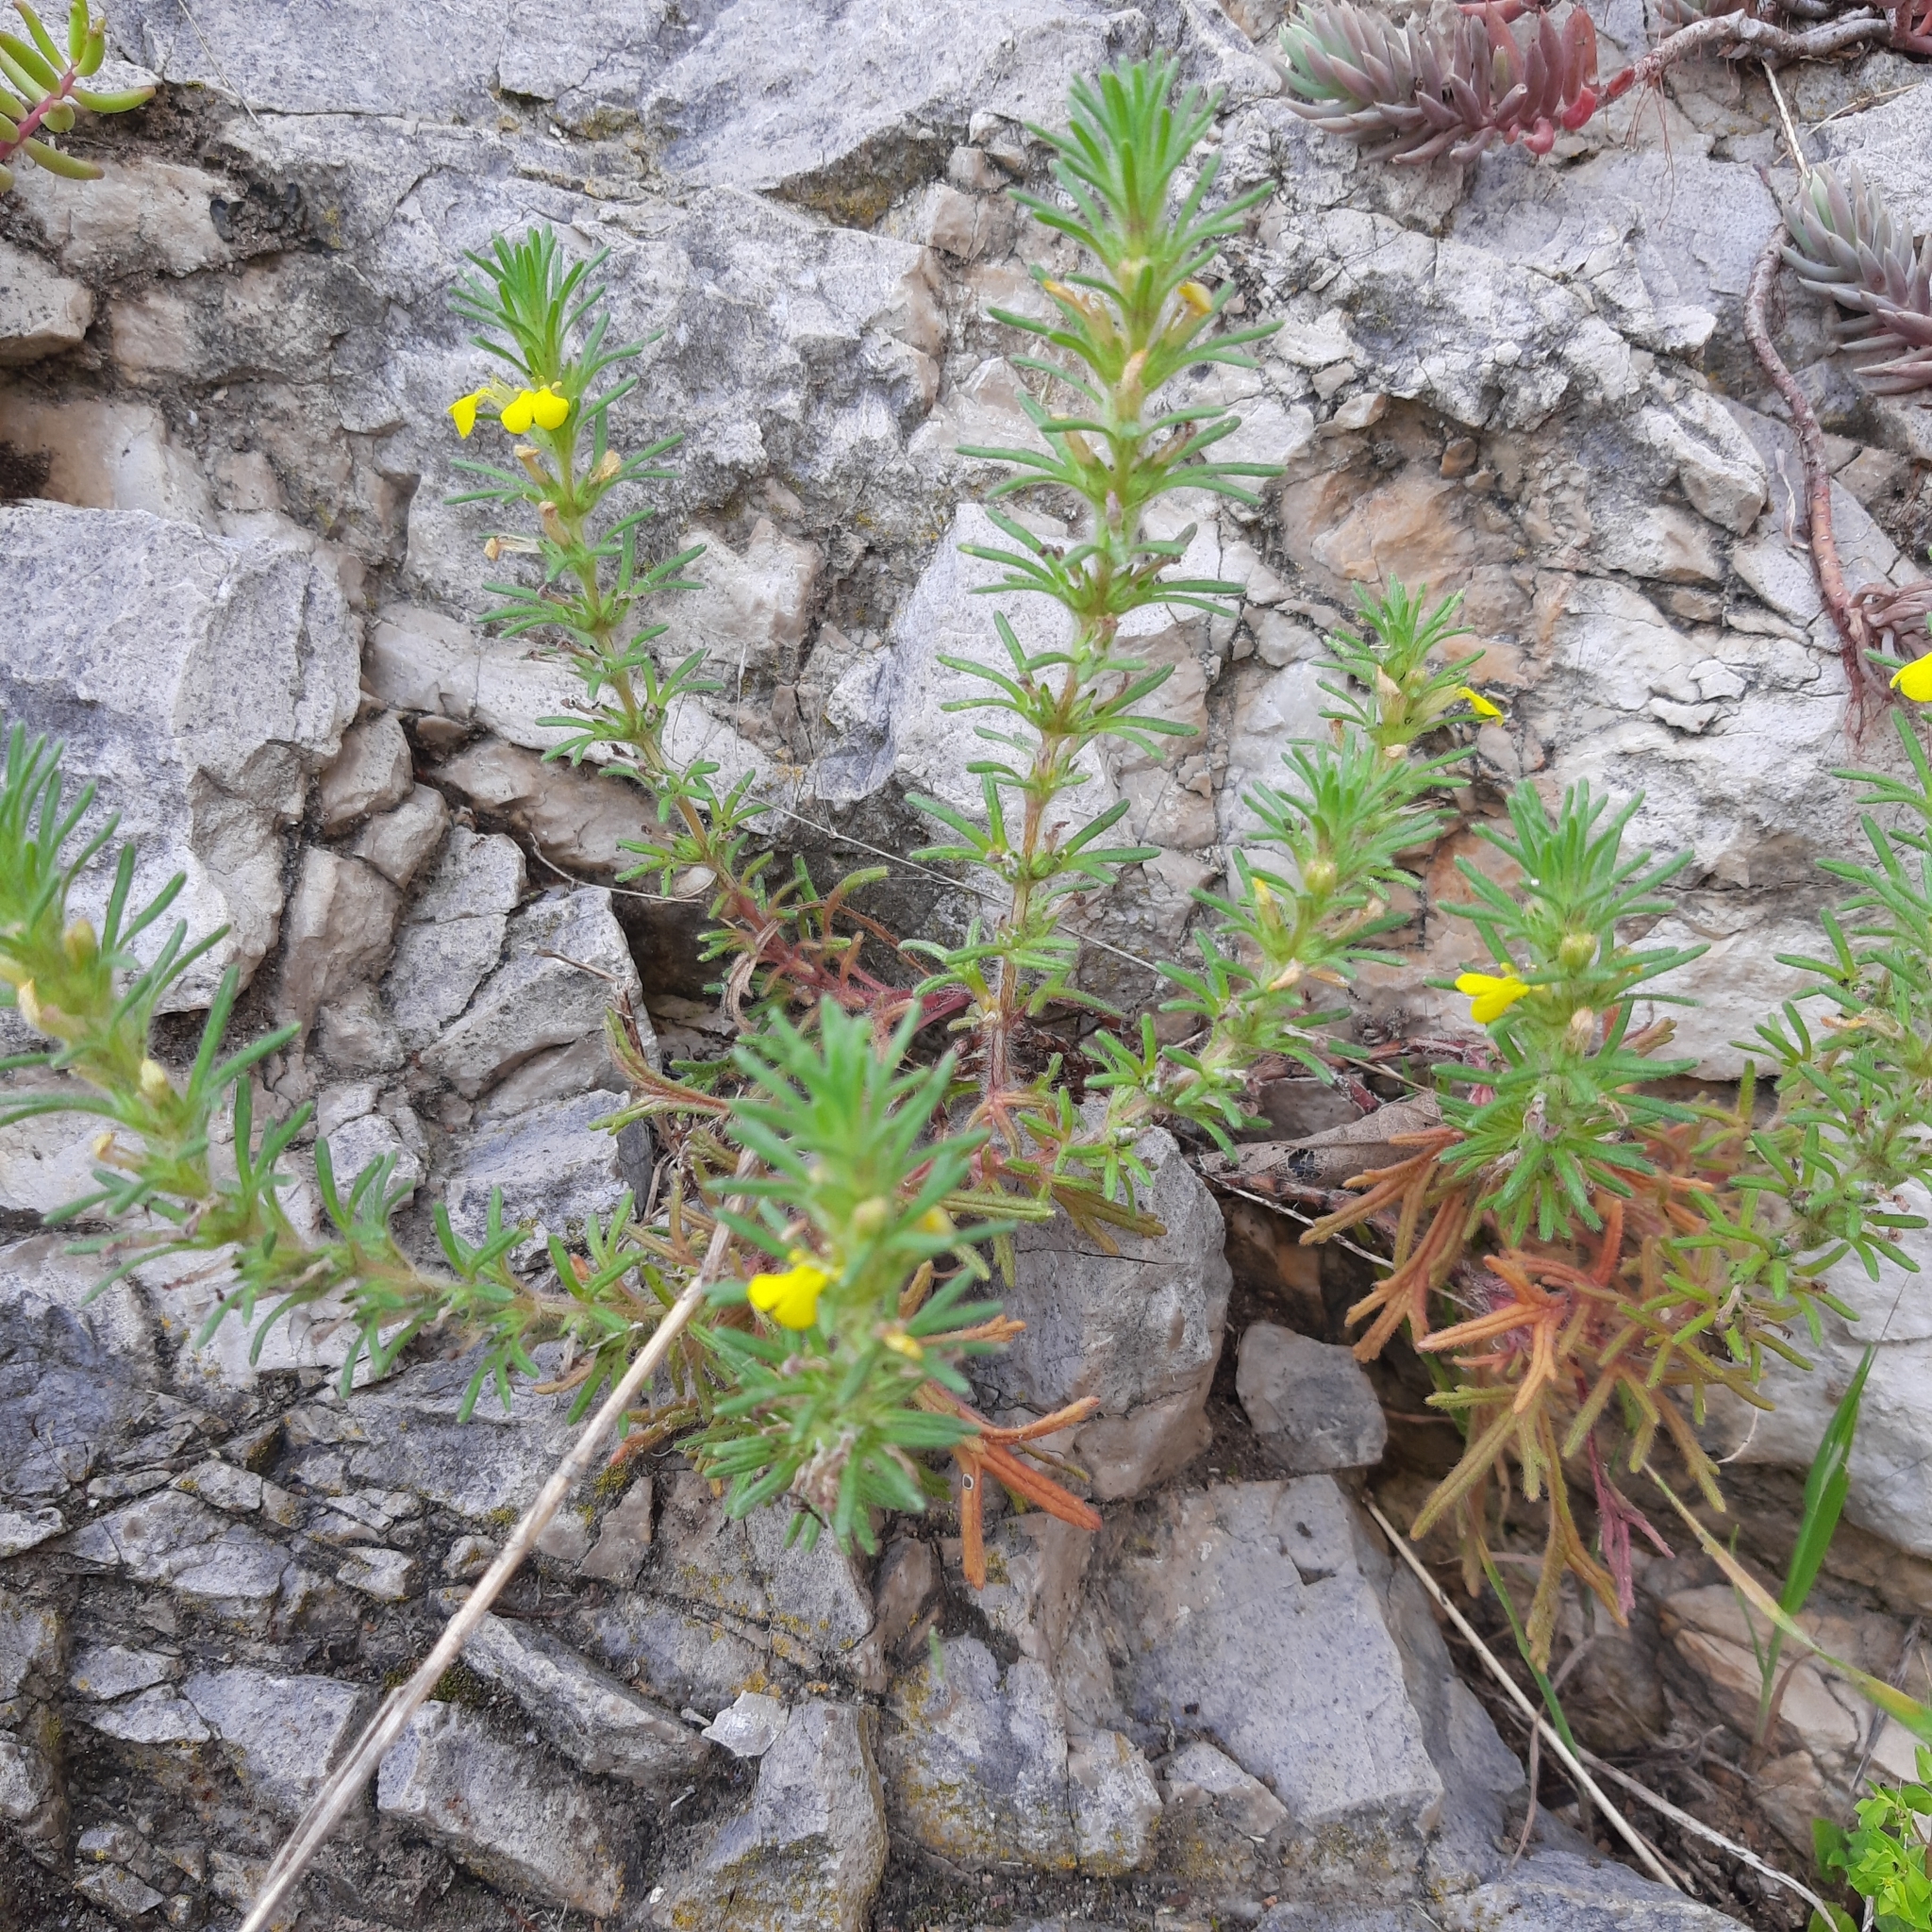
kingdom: Plantae
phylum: Tracheophyta
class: Magnoliopsida
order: Lamiales
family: Lamiaceae
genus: Ajuga
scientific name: Ajuga chamaepitys
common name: Ground-pine
